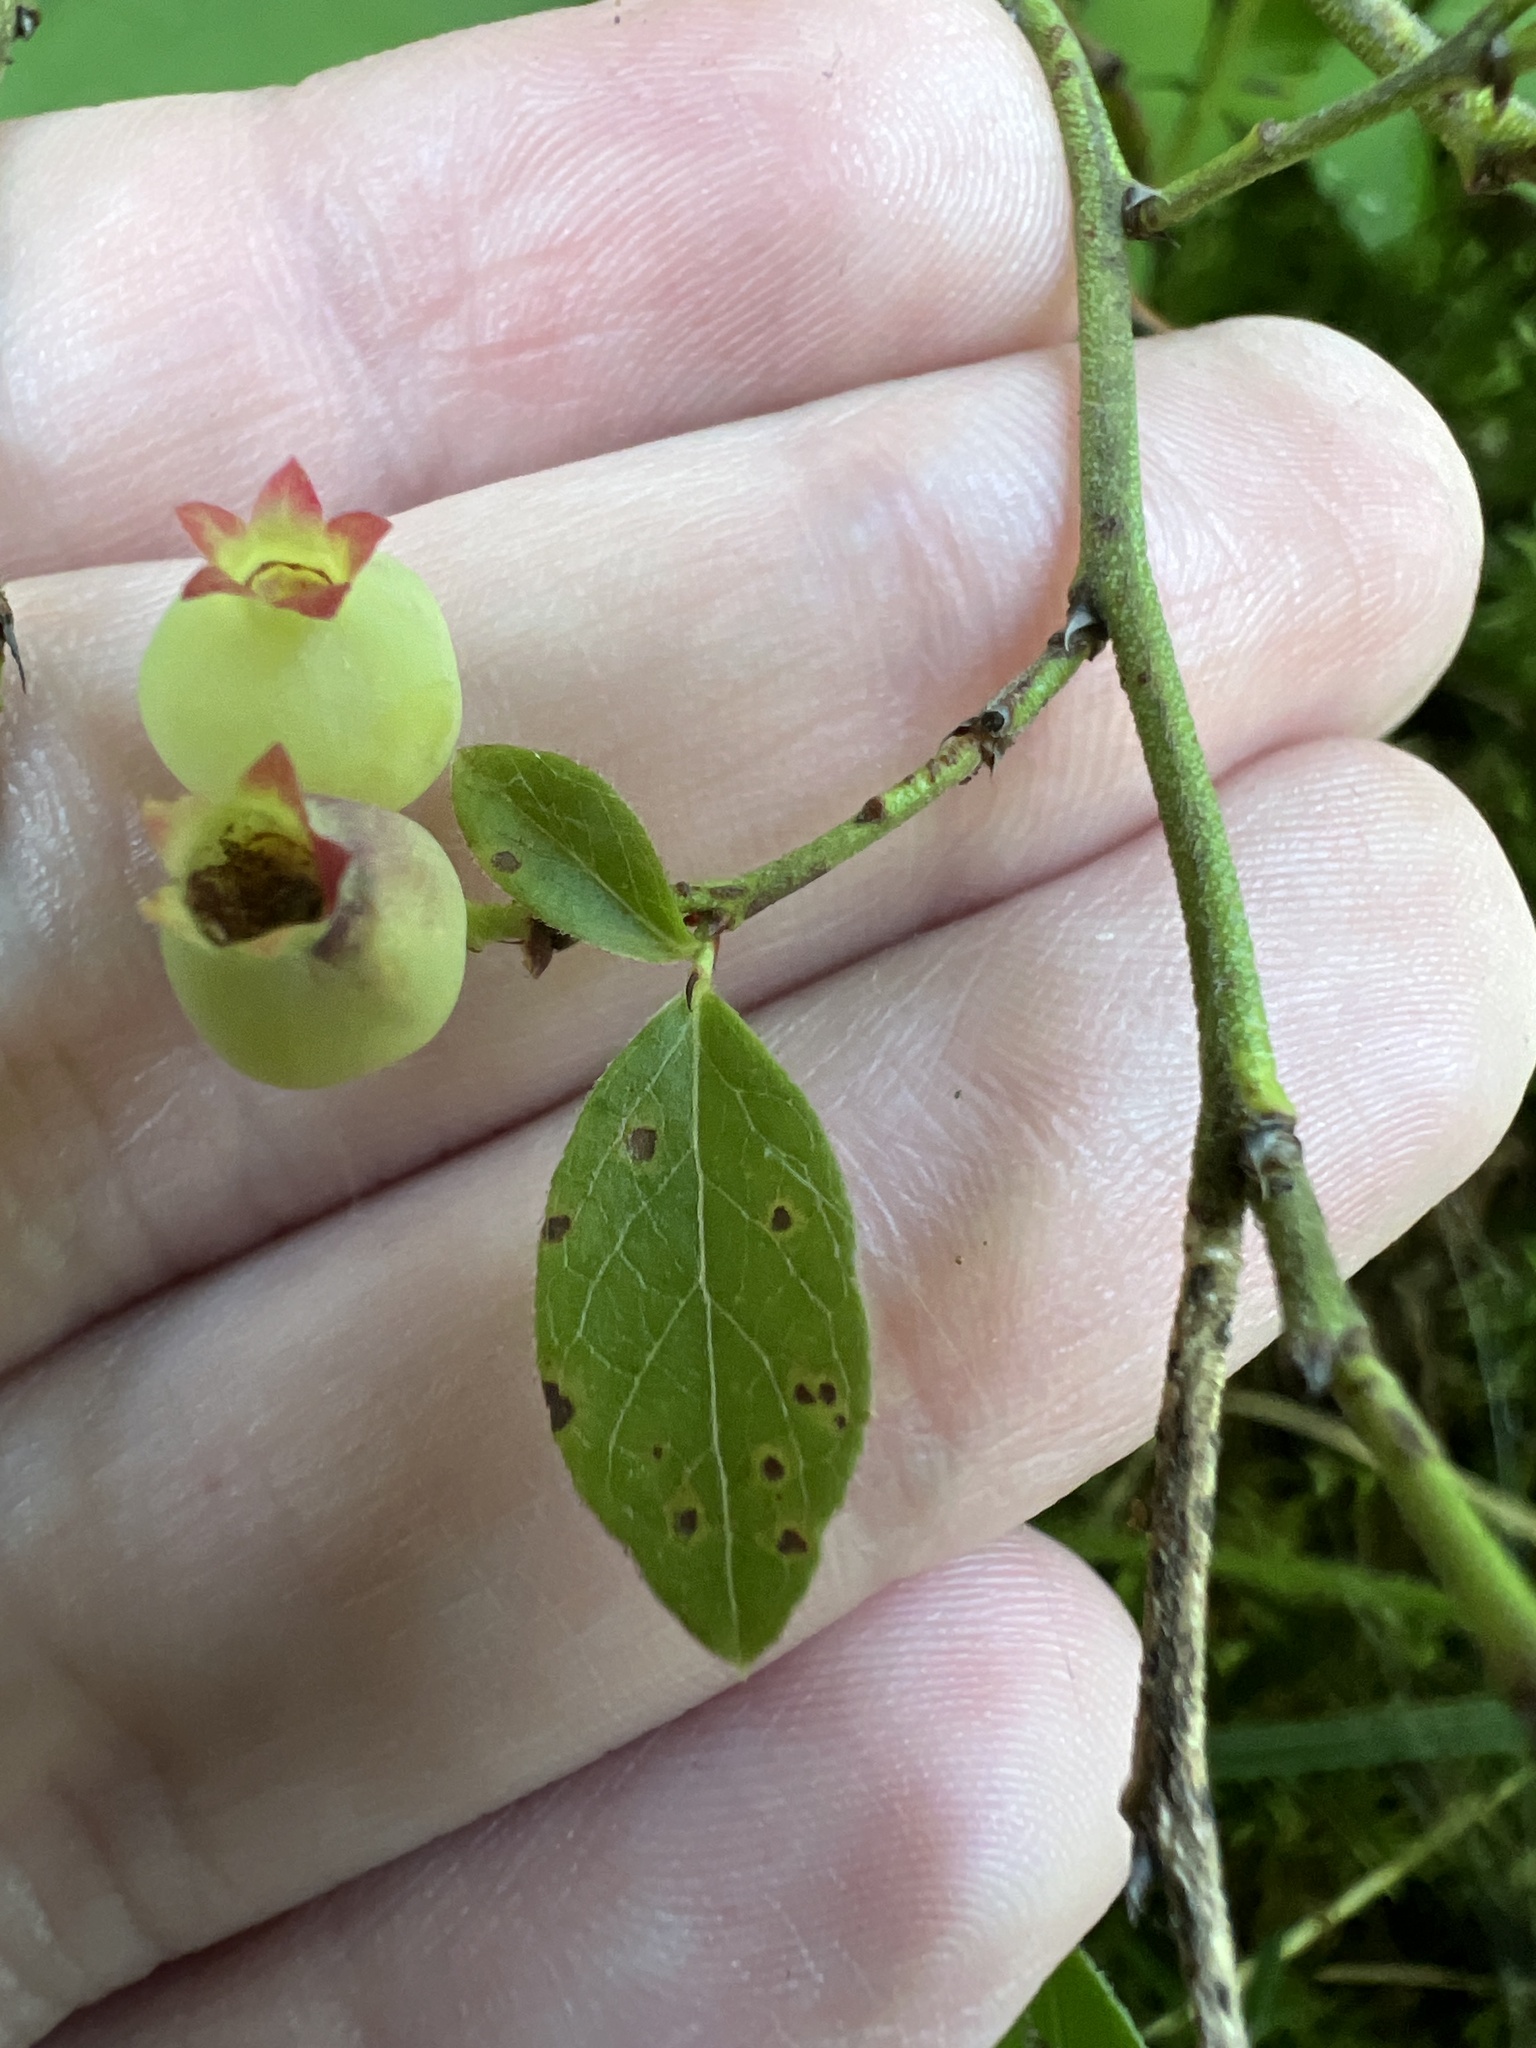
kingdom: Plantae
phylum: Tracheophyta
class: Magnoliopsida
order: Ericales
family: Ericaceae
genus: Vaccinium
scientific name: Vaccinium myrtilloides
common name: Canada blueberry
